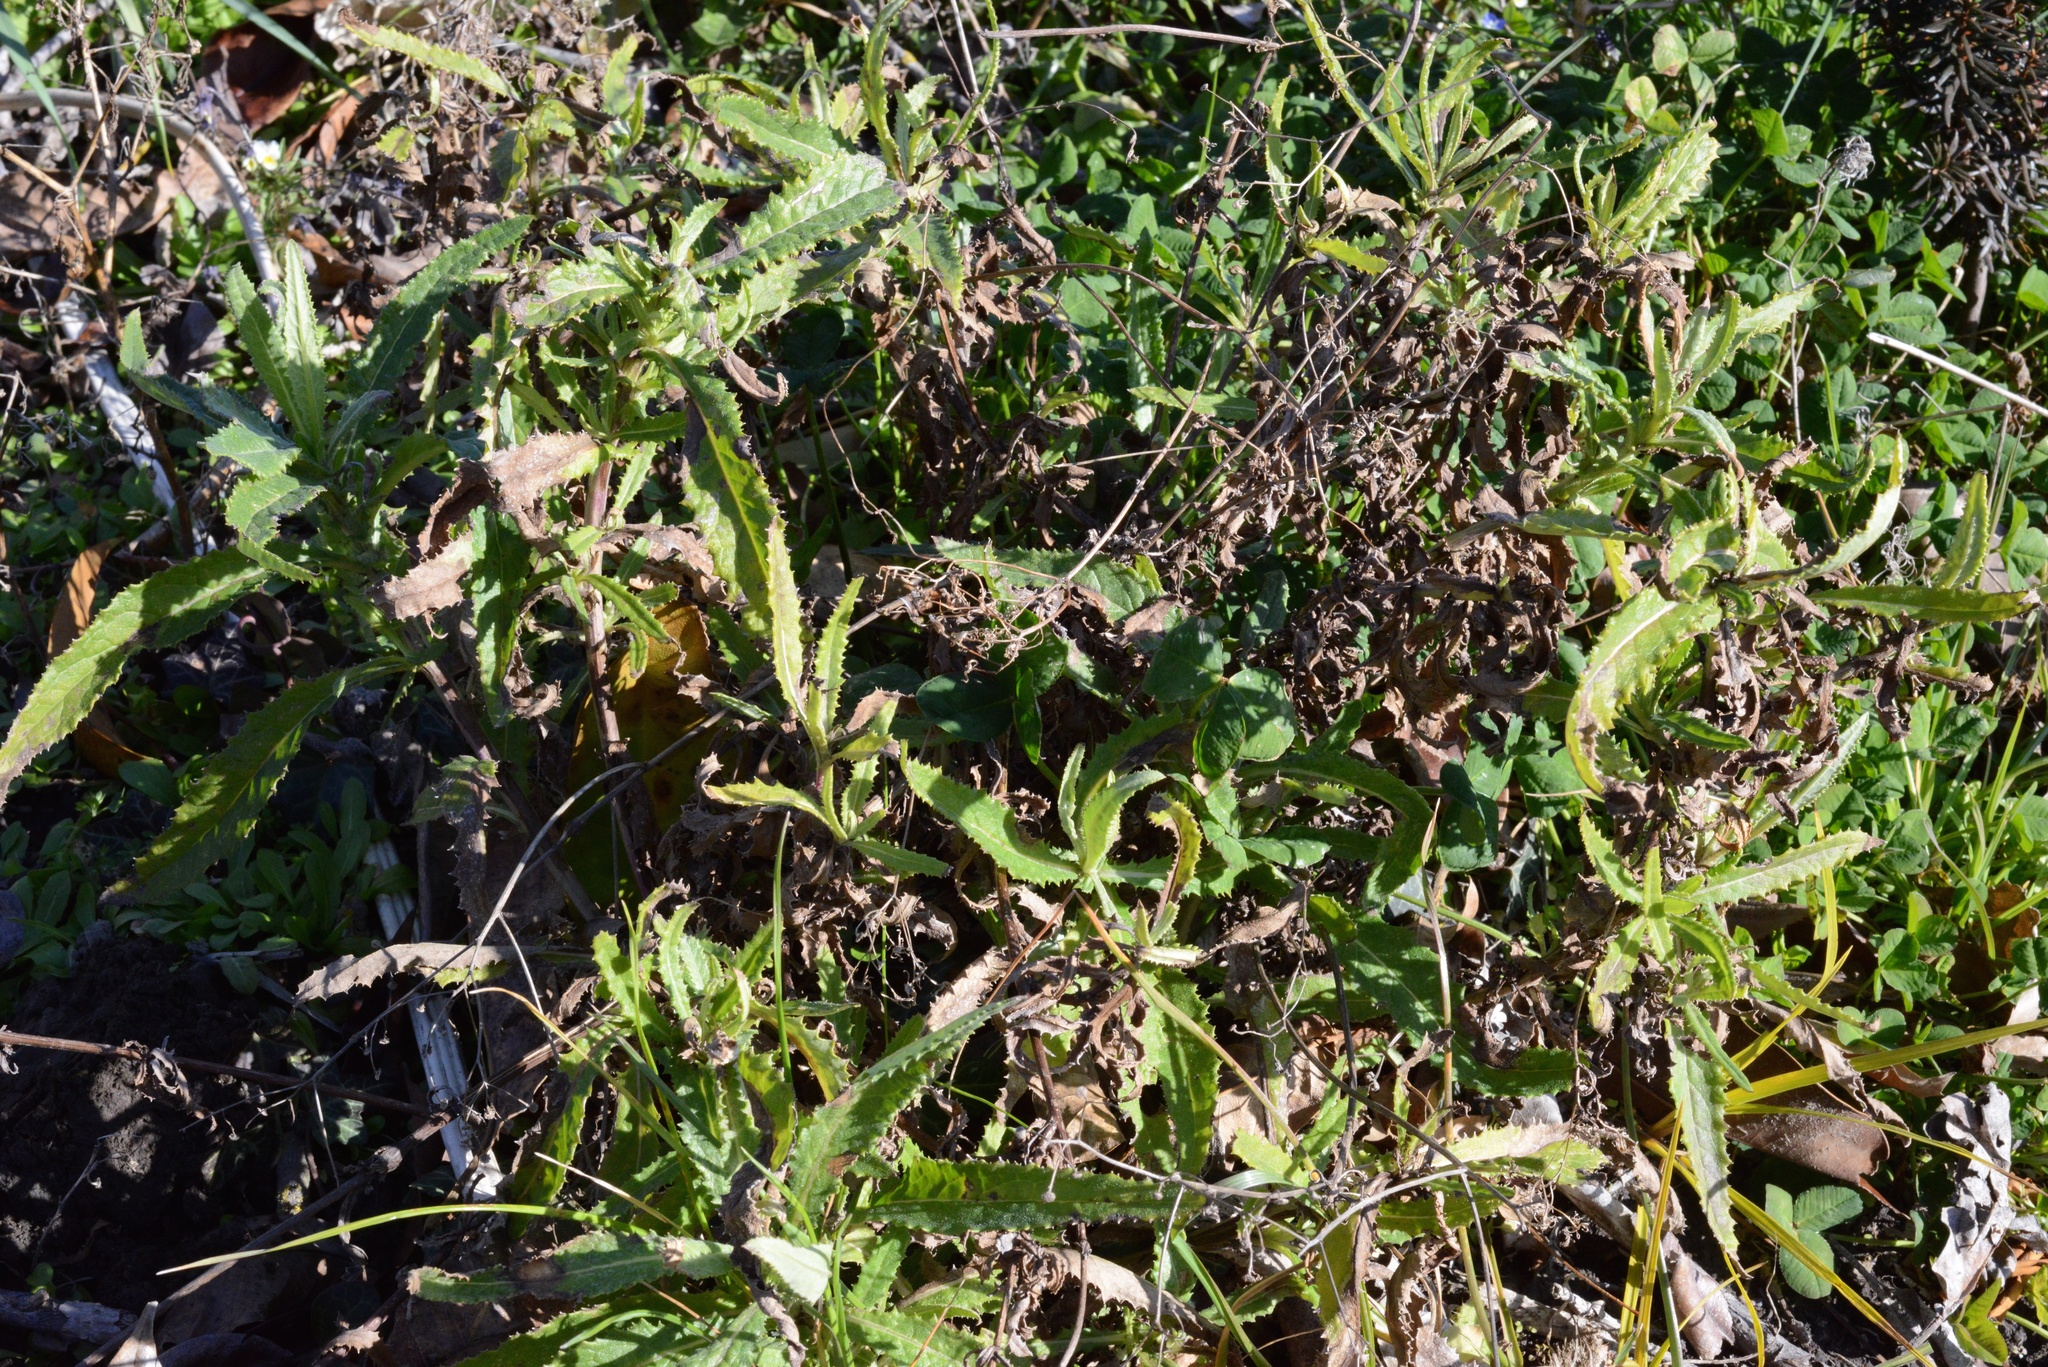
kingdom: Plantae
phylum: Tracheophyta
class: Magnoliopsida
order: Asterales
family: Asteraceae
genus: Senecio
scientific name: Senecio minimus
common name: Toothed fireweed
